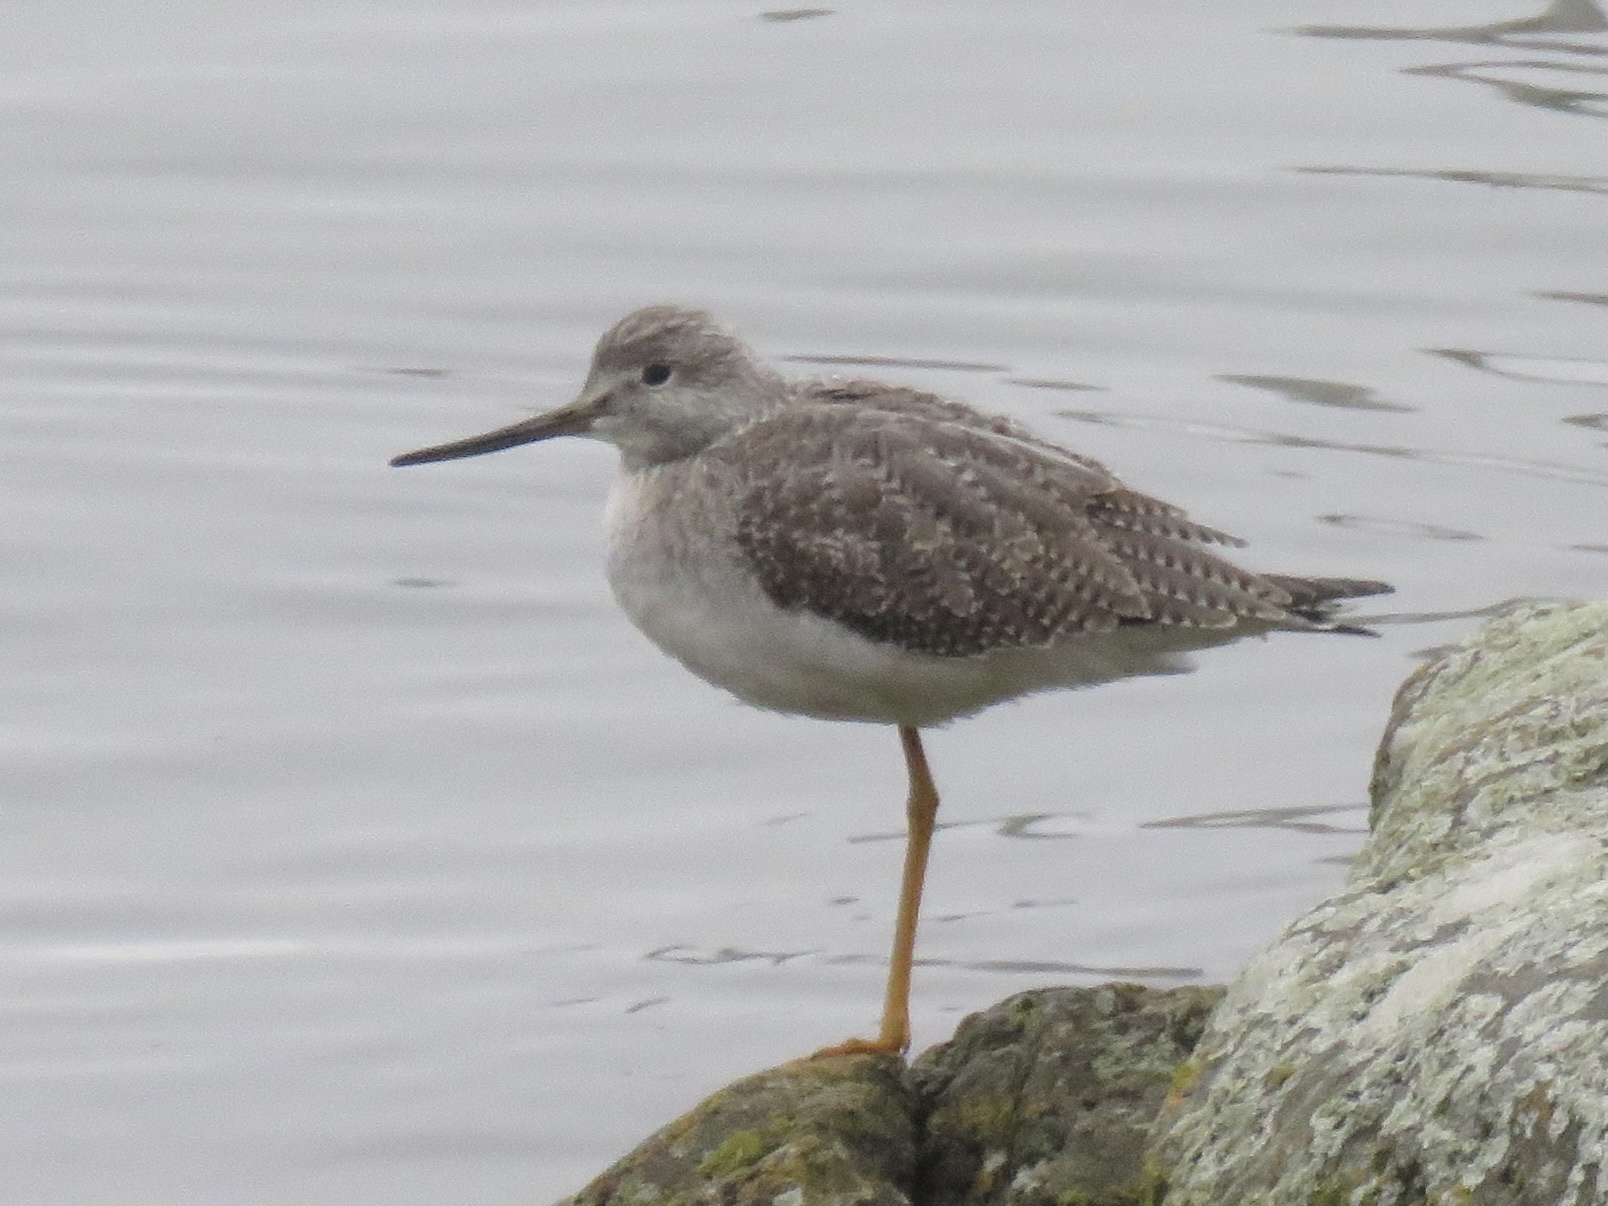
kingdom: Animalia
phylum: Chordata
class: Aves
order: Charadriiformes
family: Scolopacidae
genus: Tringa
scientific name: Tringa melanoleuca
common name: Greater yellowlegs
